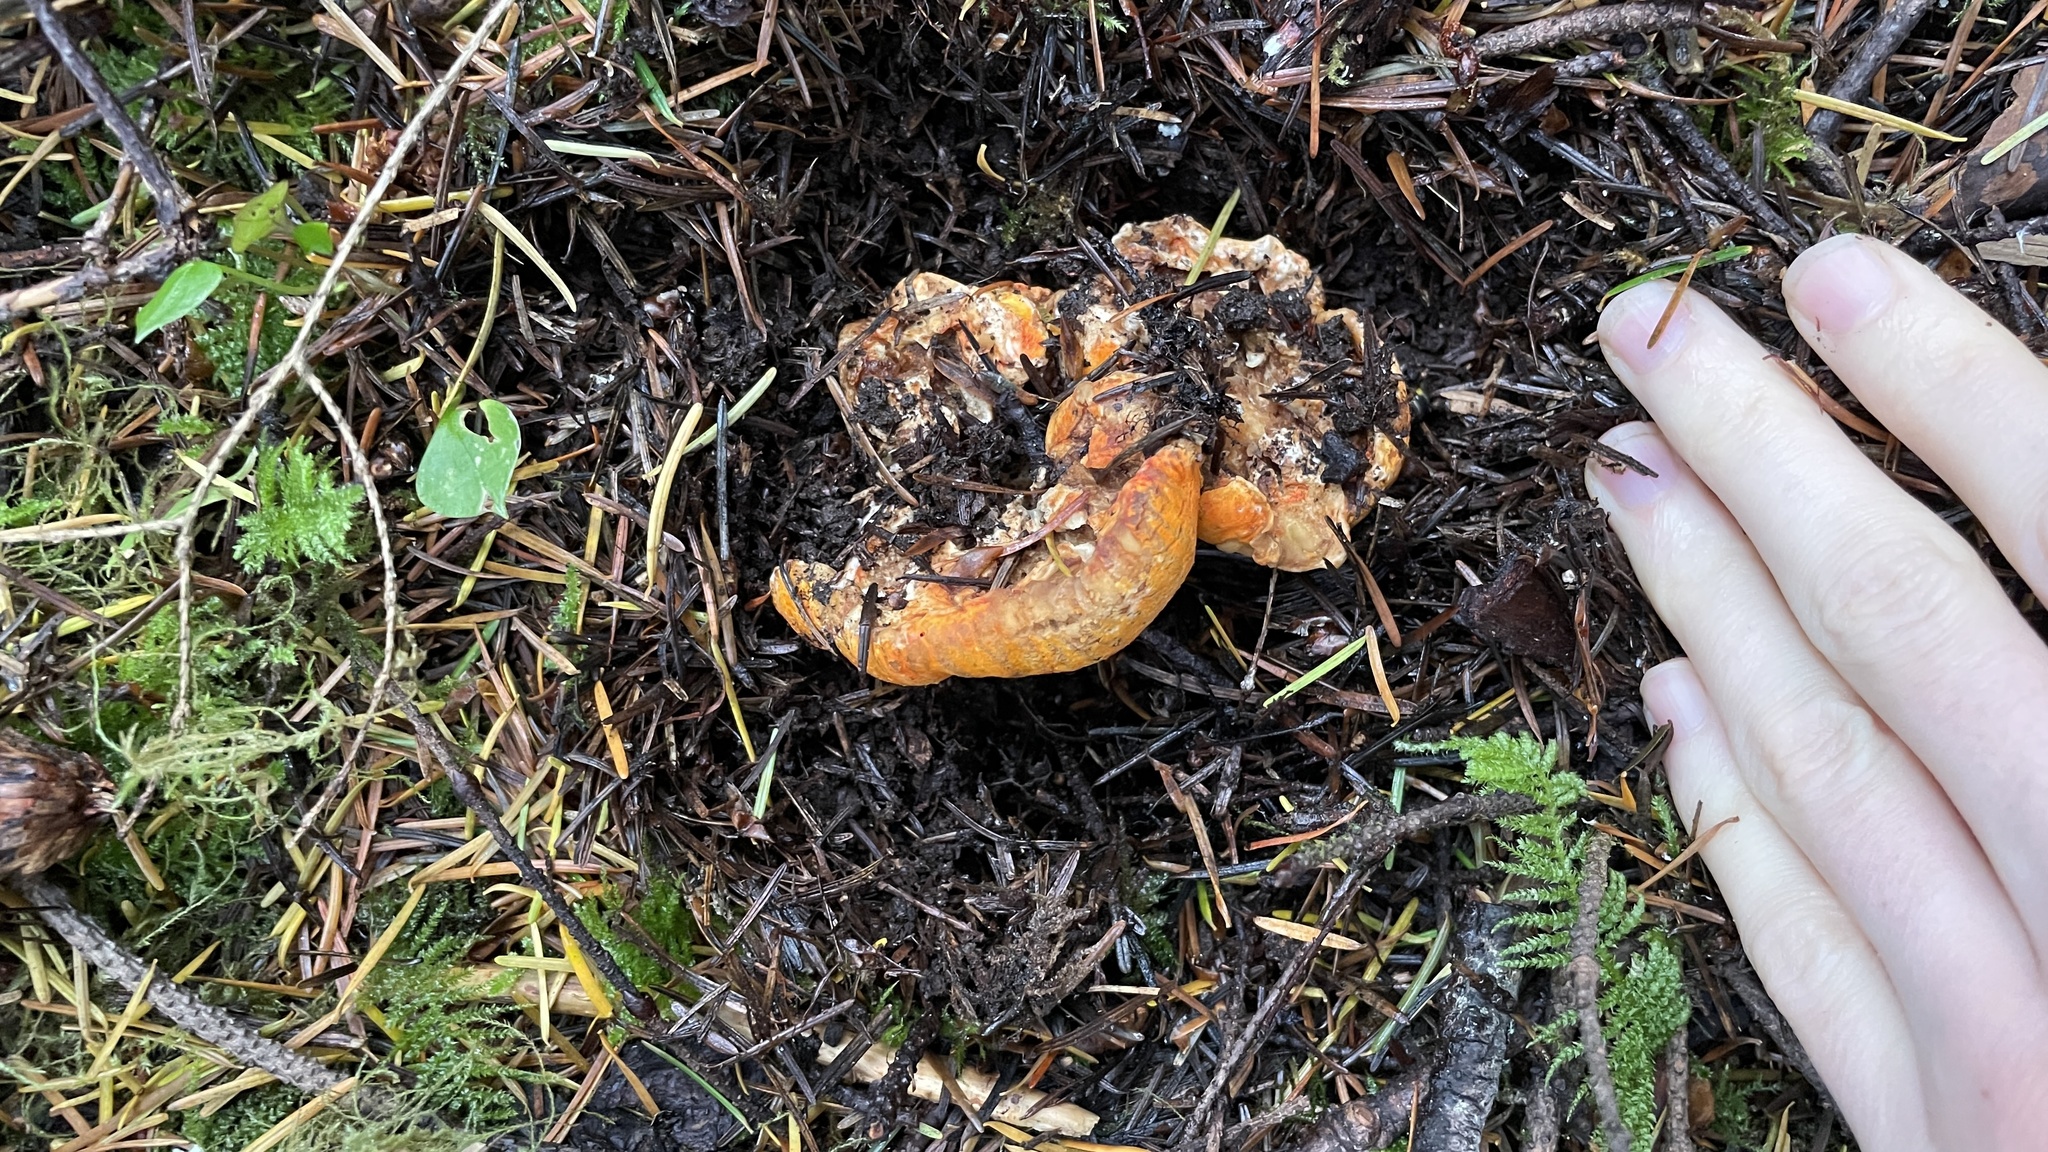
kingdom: Fungi
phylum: Ascomycota
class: Sordariomycetes
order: Hypocreales
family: Hypocreaceae
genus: Hypomyces
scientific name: Hypomyces lactifluorum
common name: Lobster mushroom
